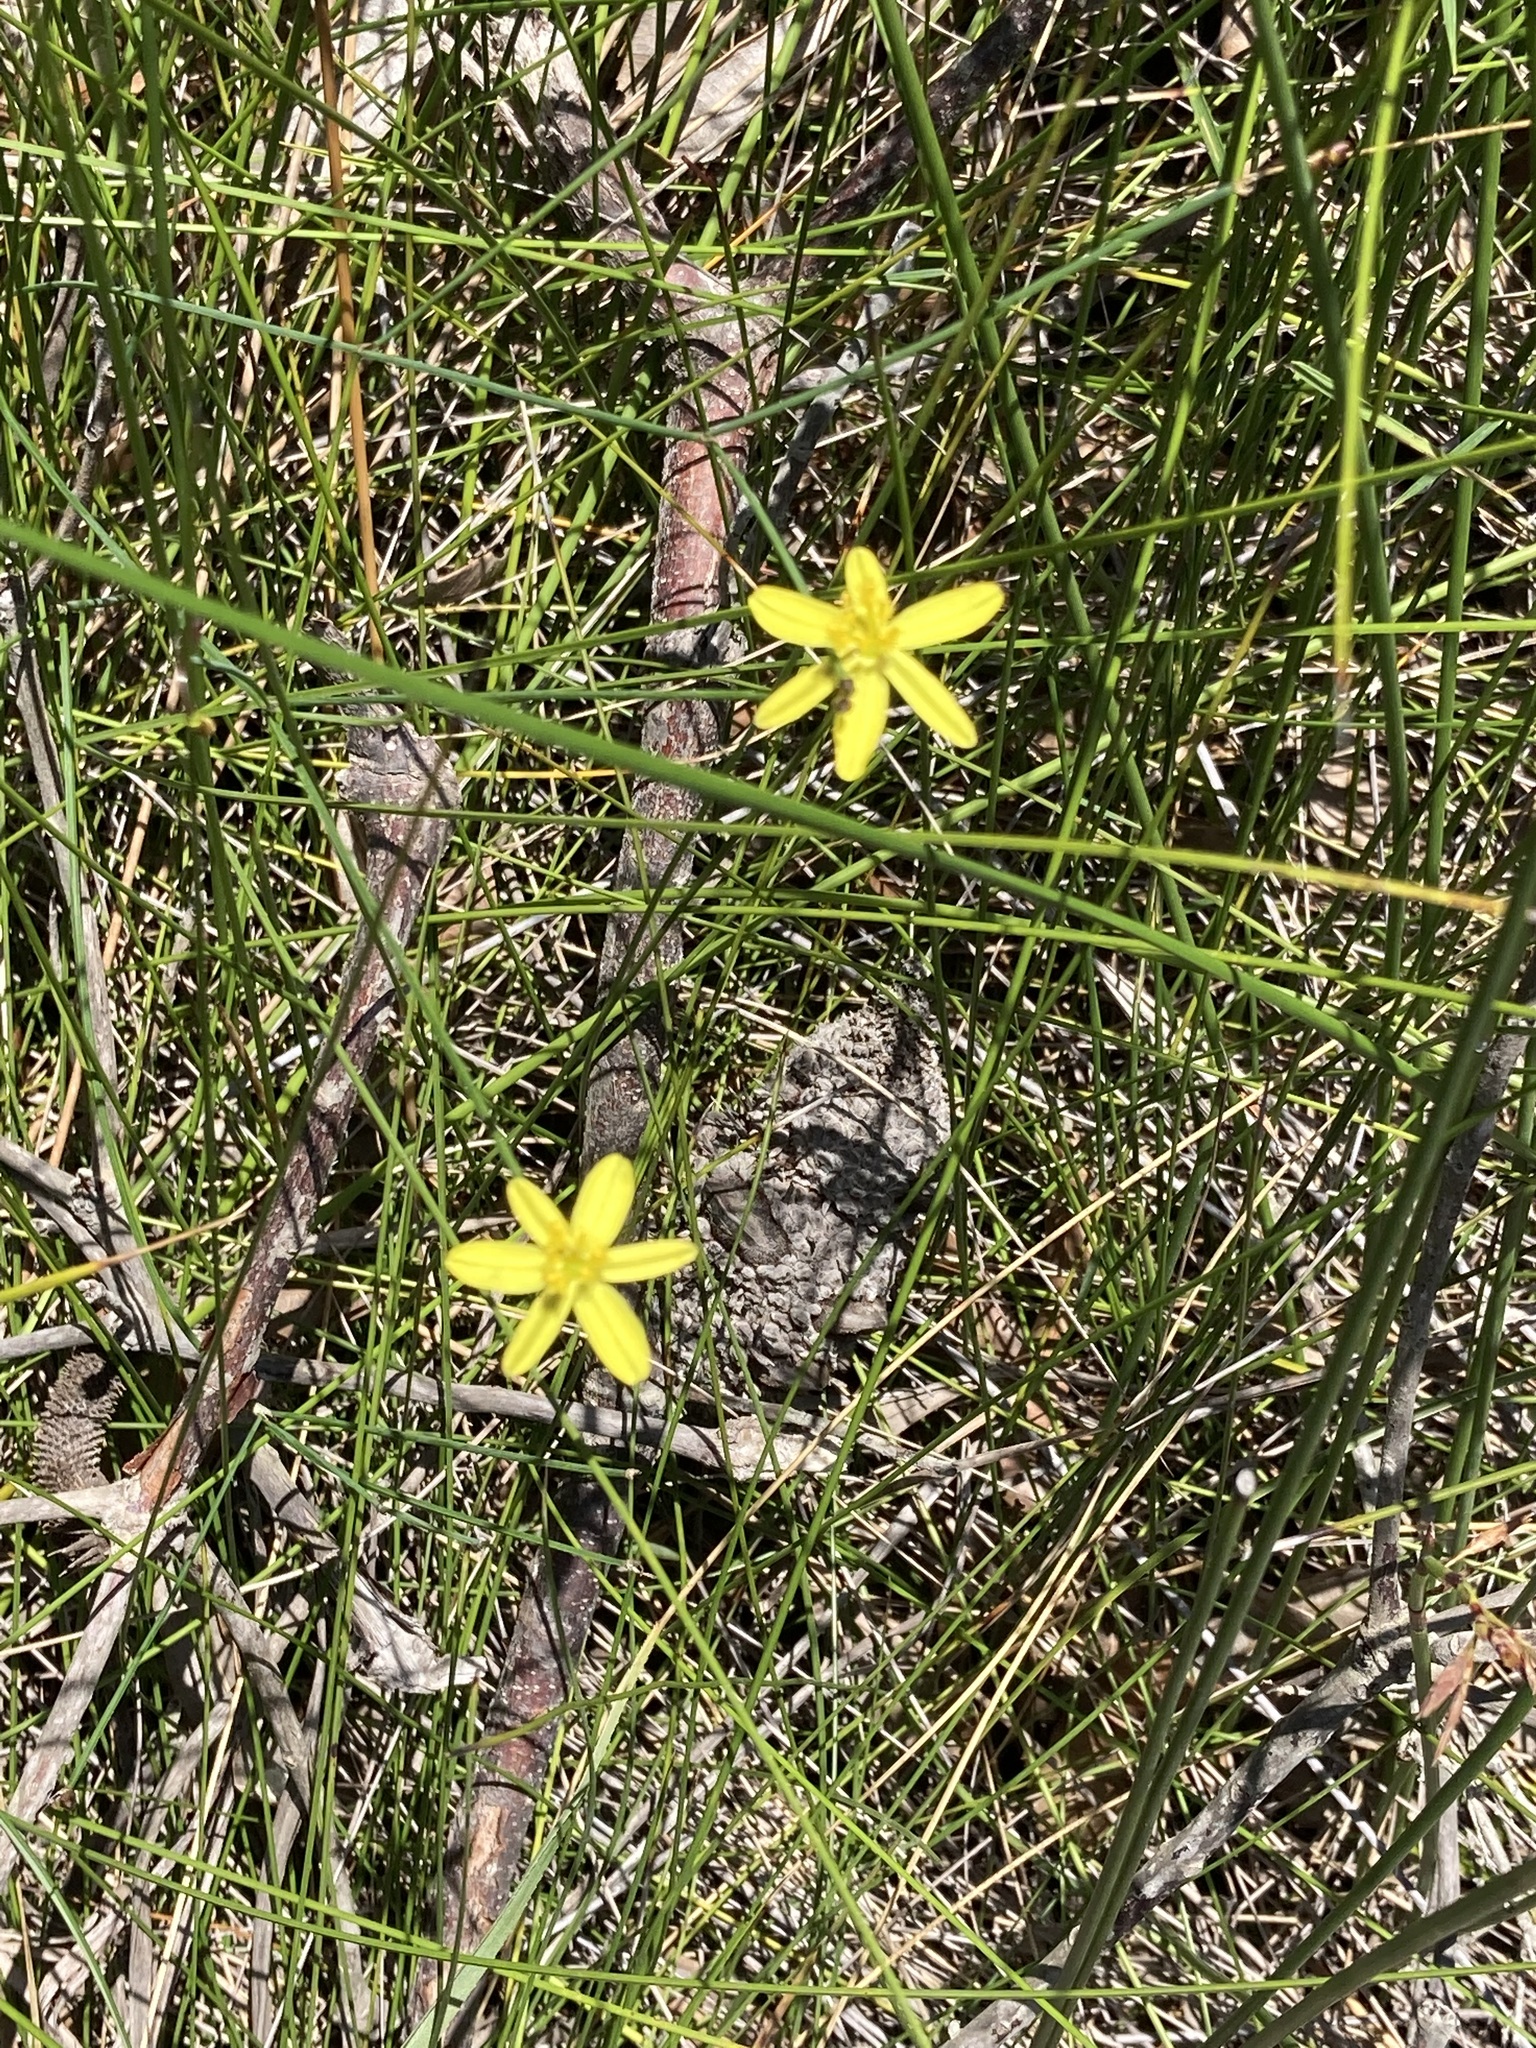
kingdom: Plantae
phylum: Tracheophyta
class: Liliopsida
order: Asparagales
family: Asphodelaceae
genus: Tricoryne
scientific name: Tricoryne elatior
